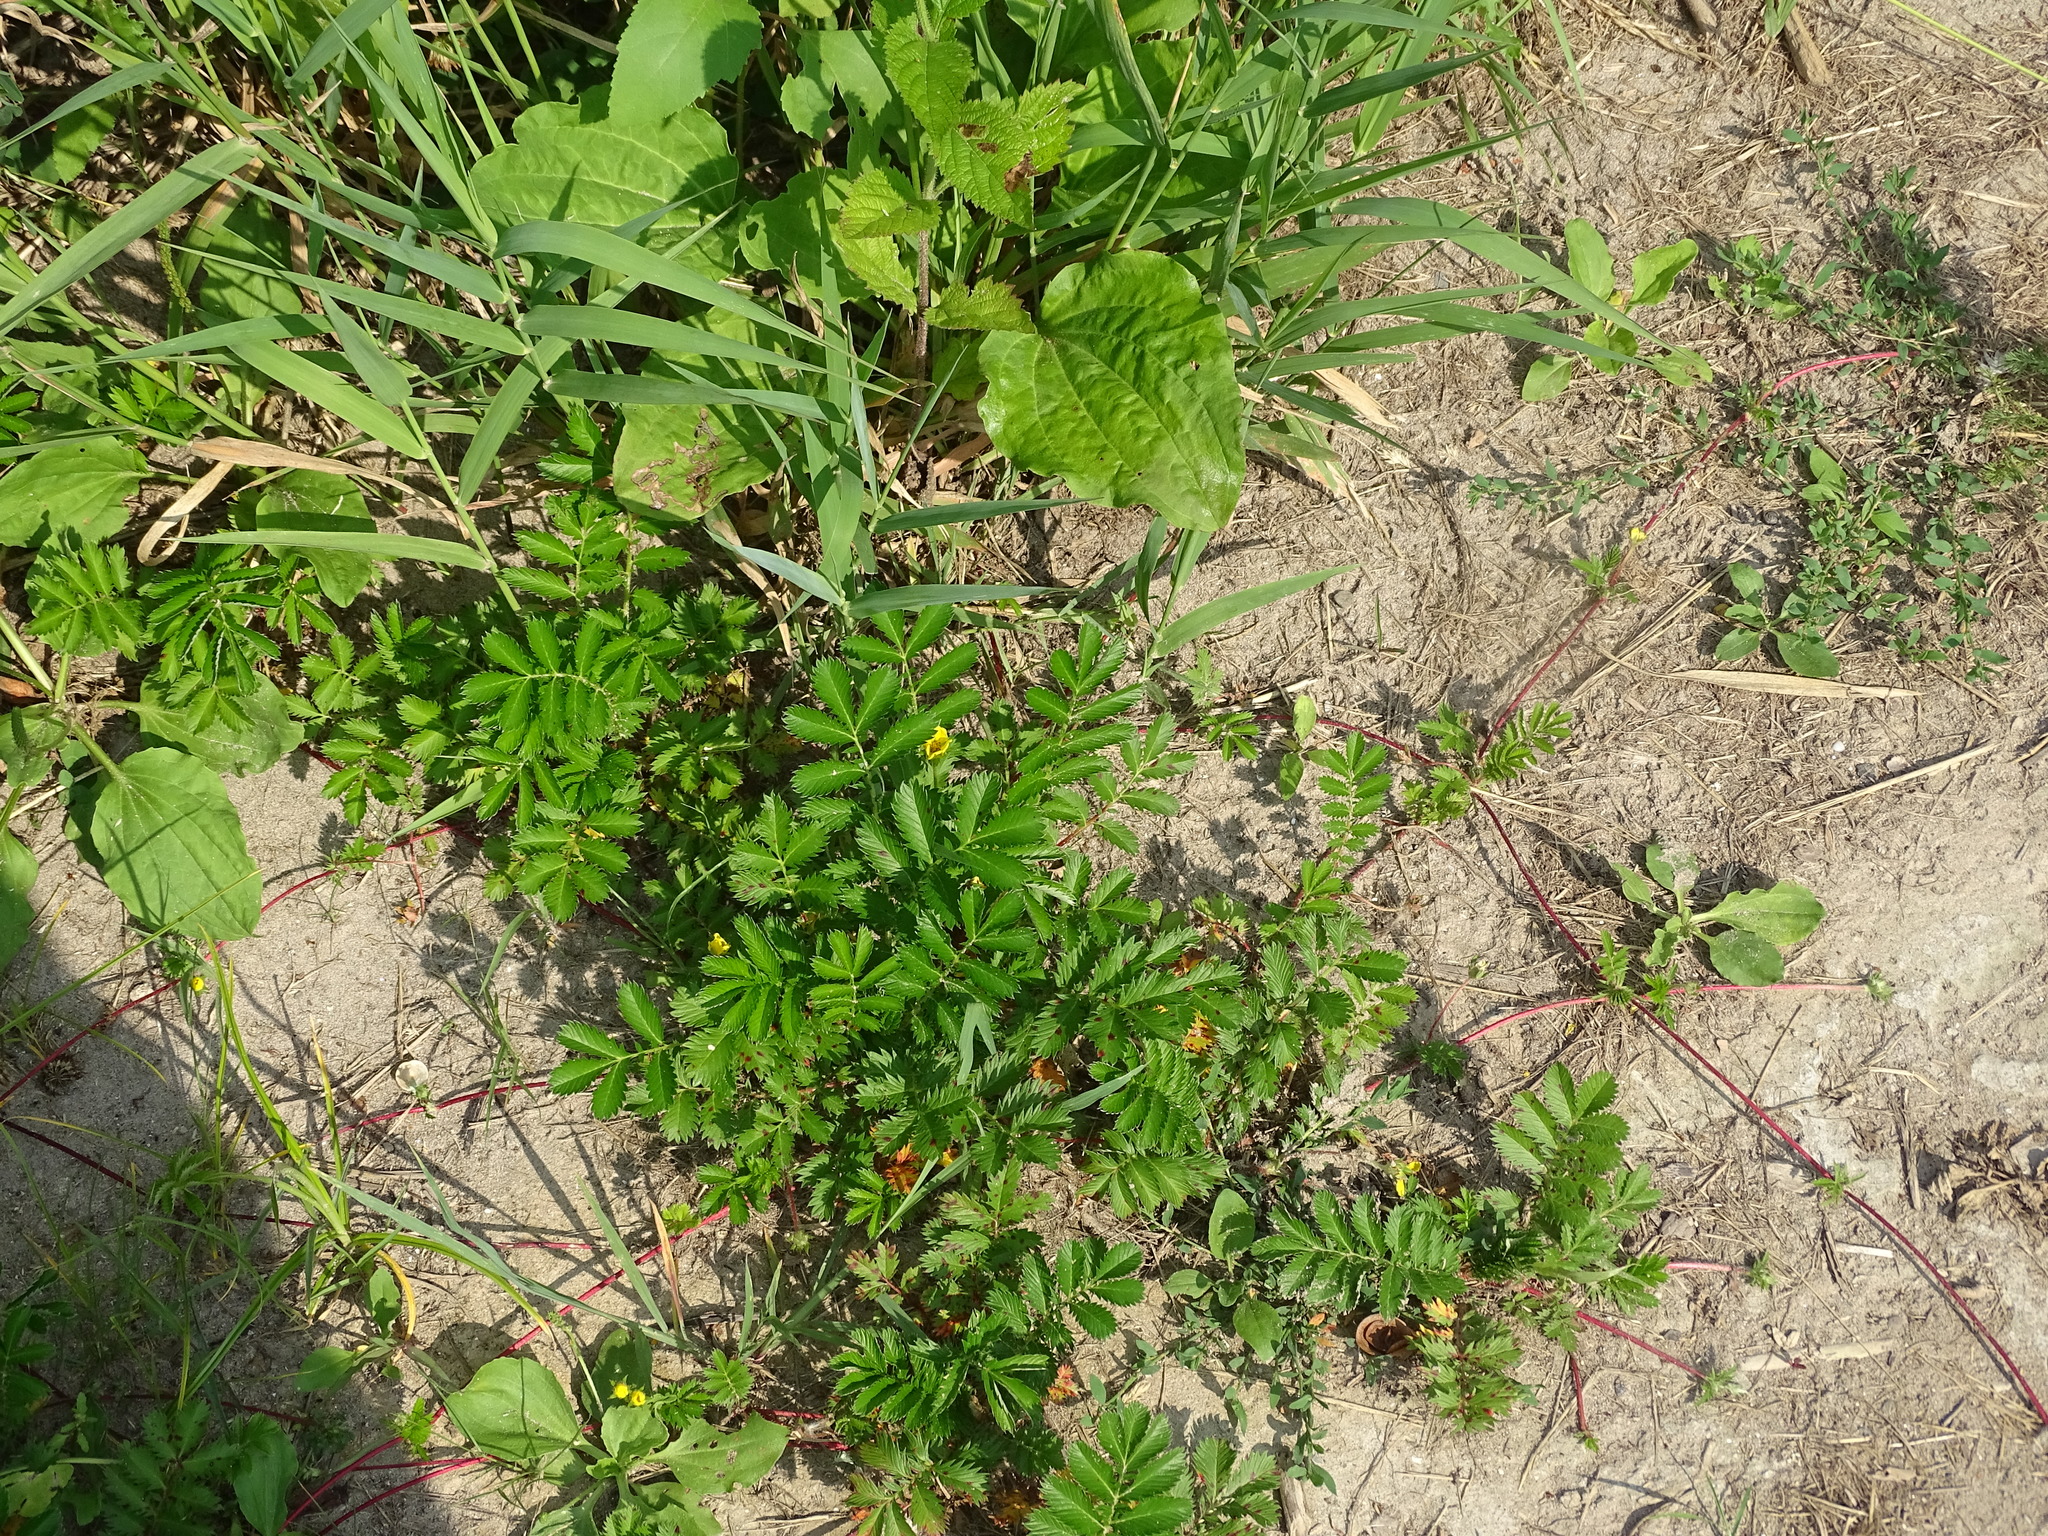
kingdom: Plantae
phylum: Tracheophyta
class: Magnoliopsida
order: Rosales
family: Rosaceae
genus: Argentina
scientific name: Argentina anserina
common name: Common silverweed
